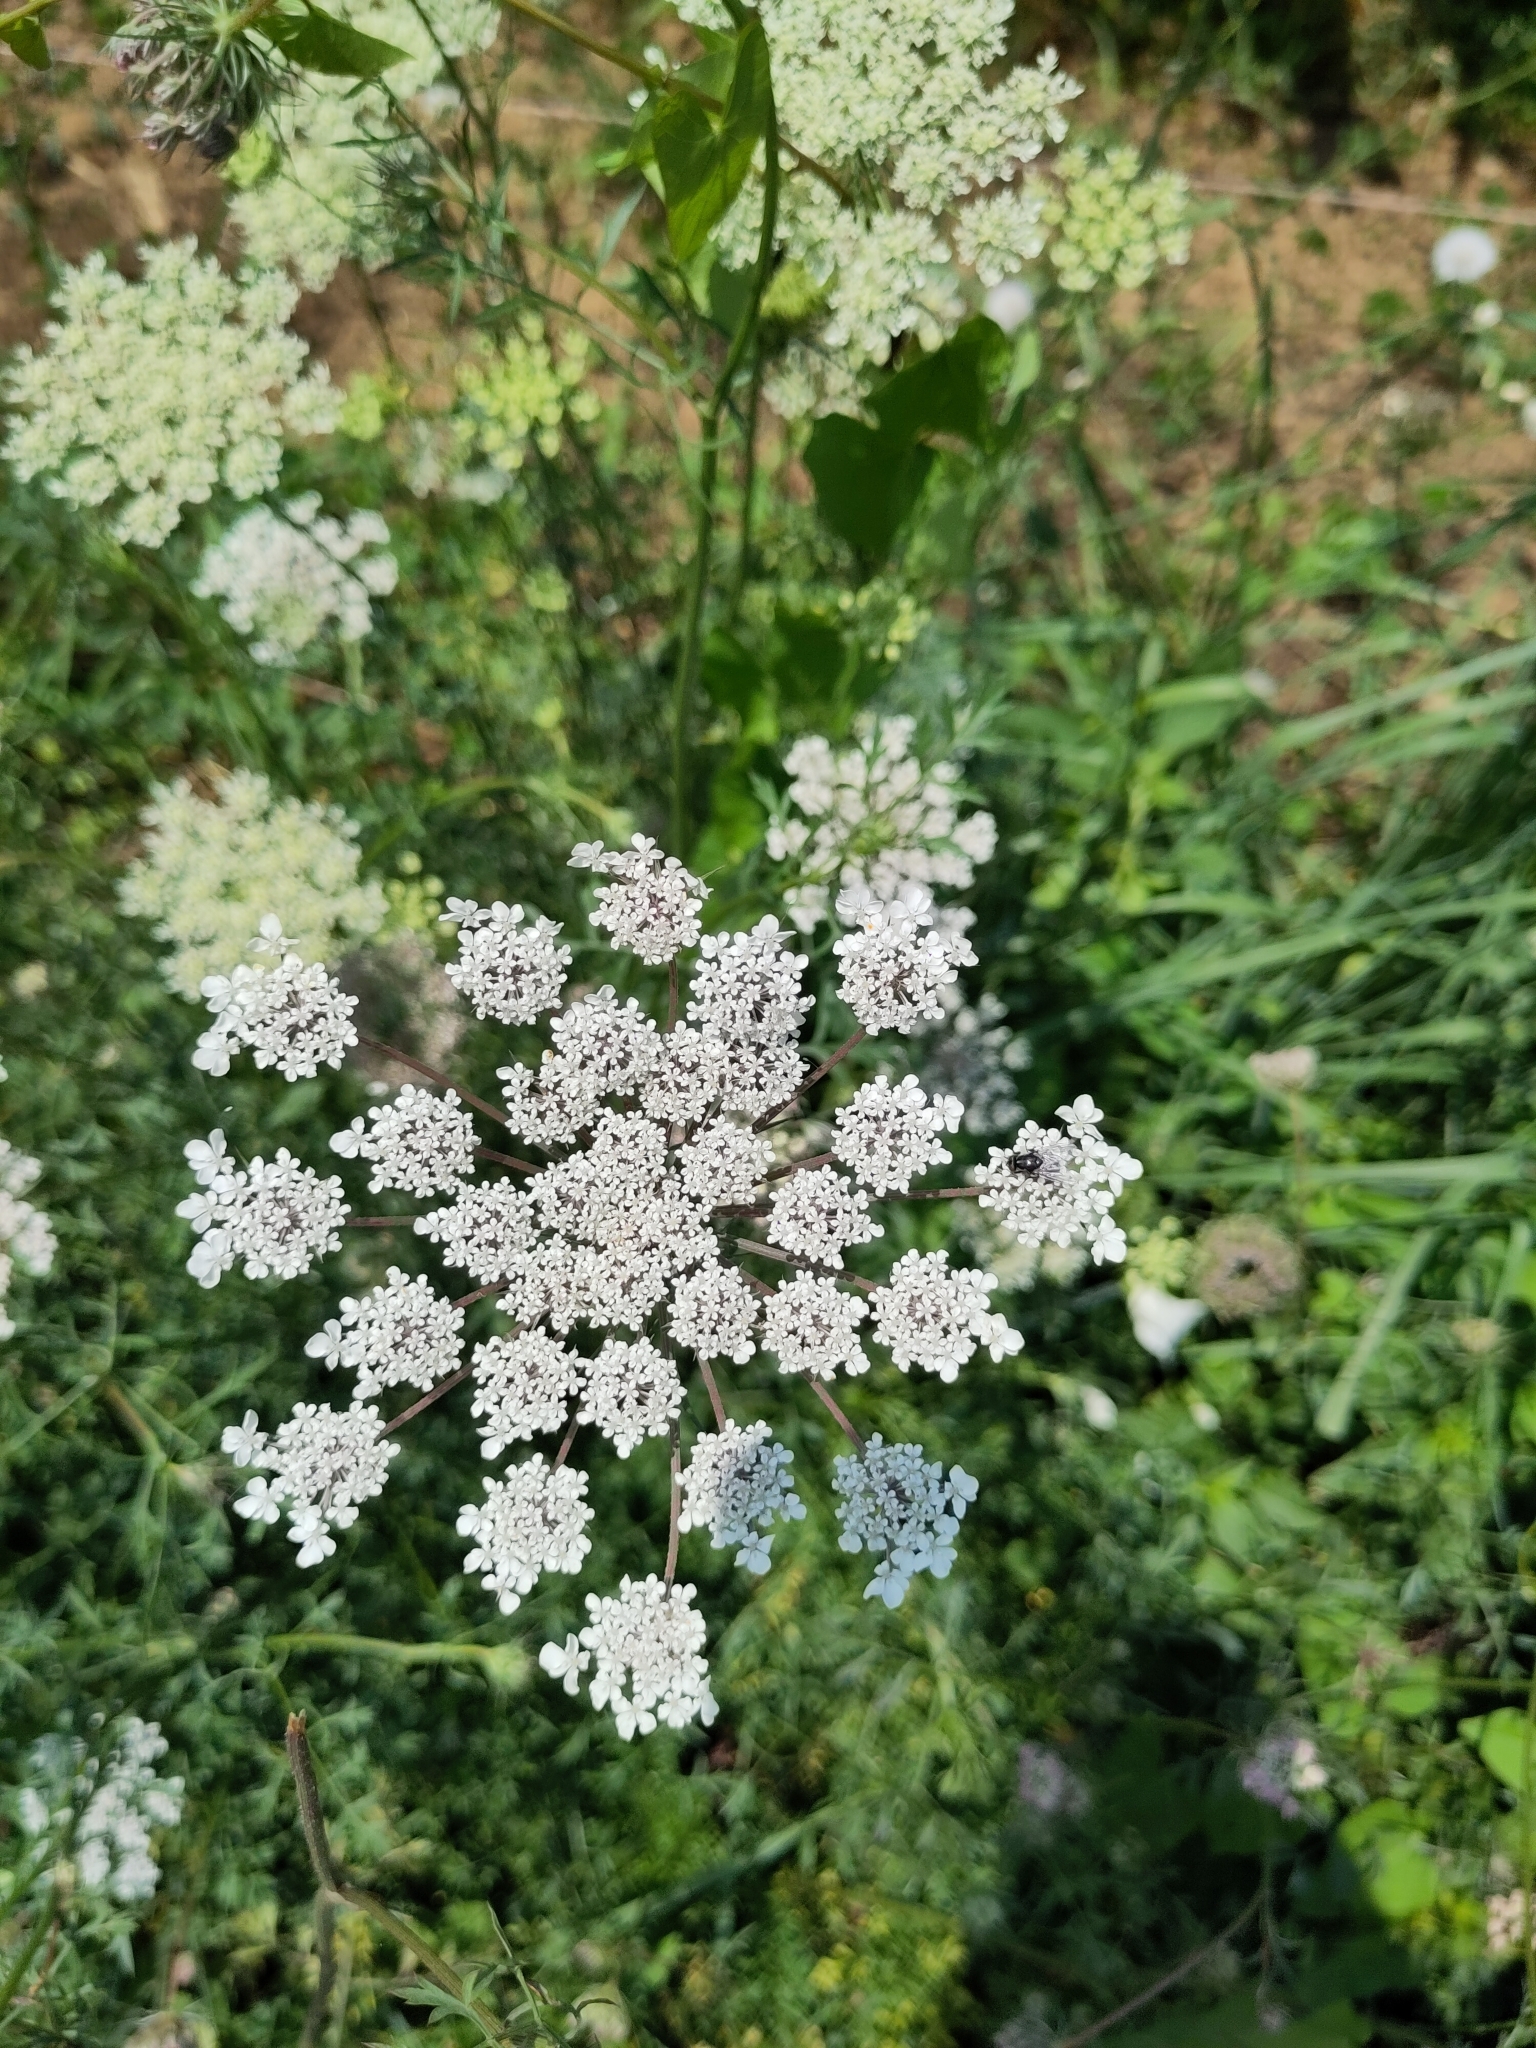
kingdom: Plantae
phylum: Tracheophyta
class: Magnoliopsida
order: Apiales
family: Apiaceae
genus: Daucus
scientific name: Daucus carota
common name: Wild carrot
